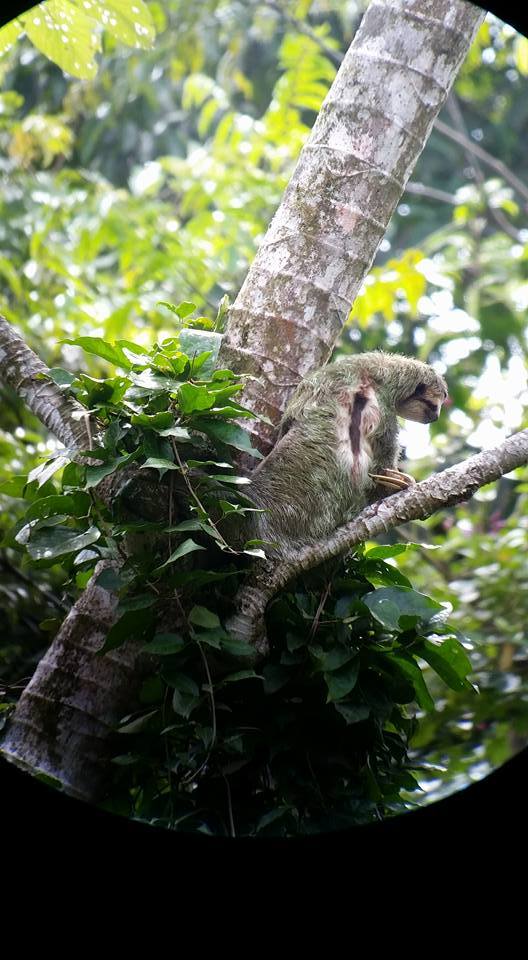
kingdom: Animalia
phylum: Chordata
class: Mammalia
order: Pilosa
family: Bradypodidae
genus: Bradypus
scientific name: Bradypus variegatus
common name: Brown-throated three-toed sloth
